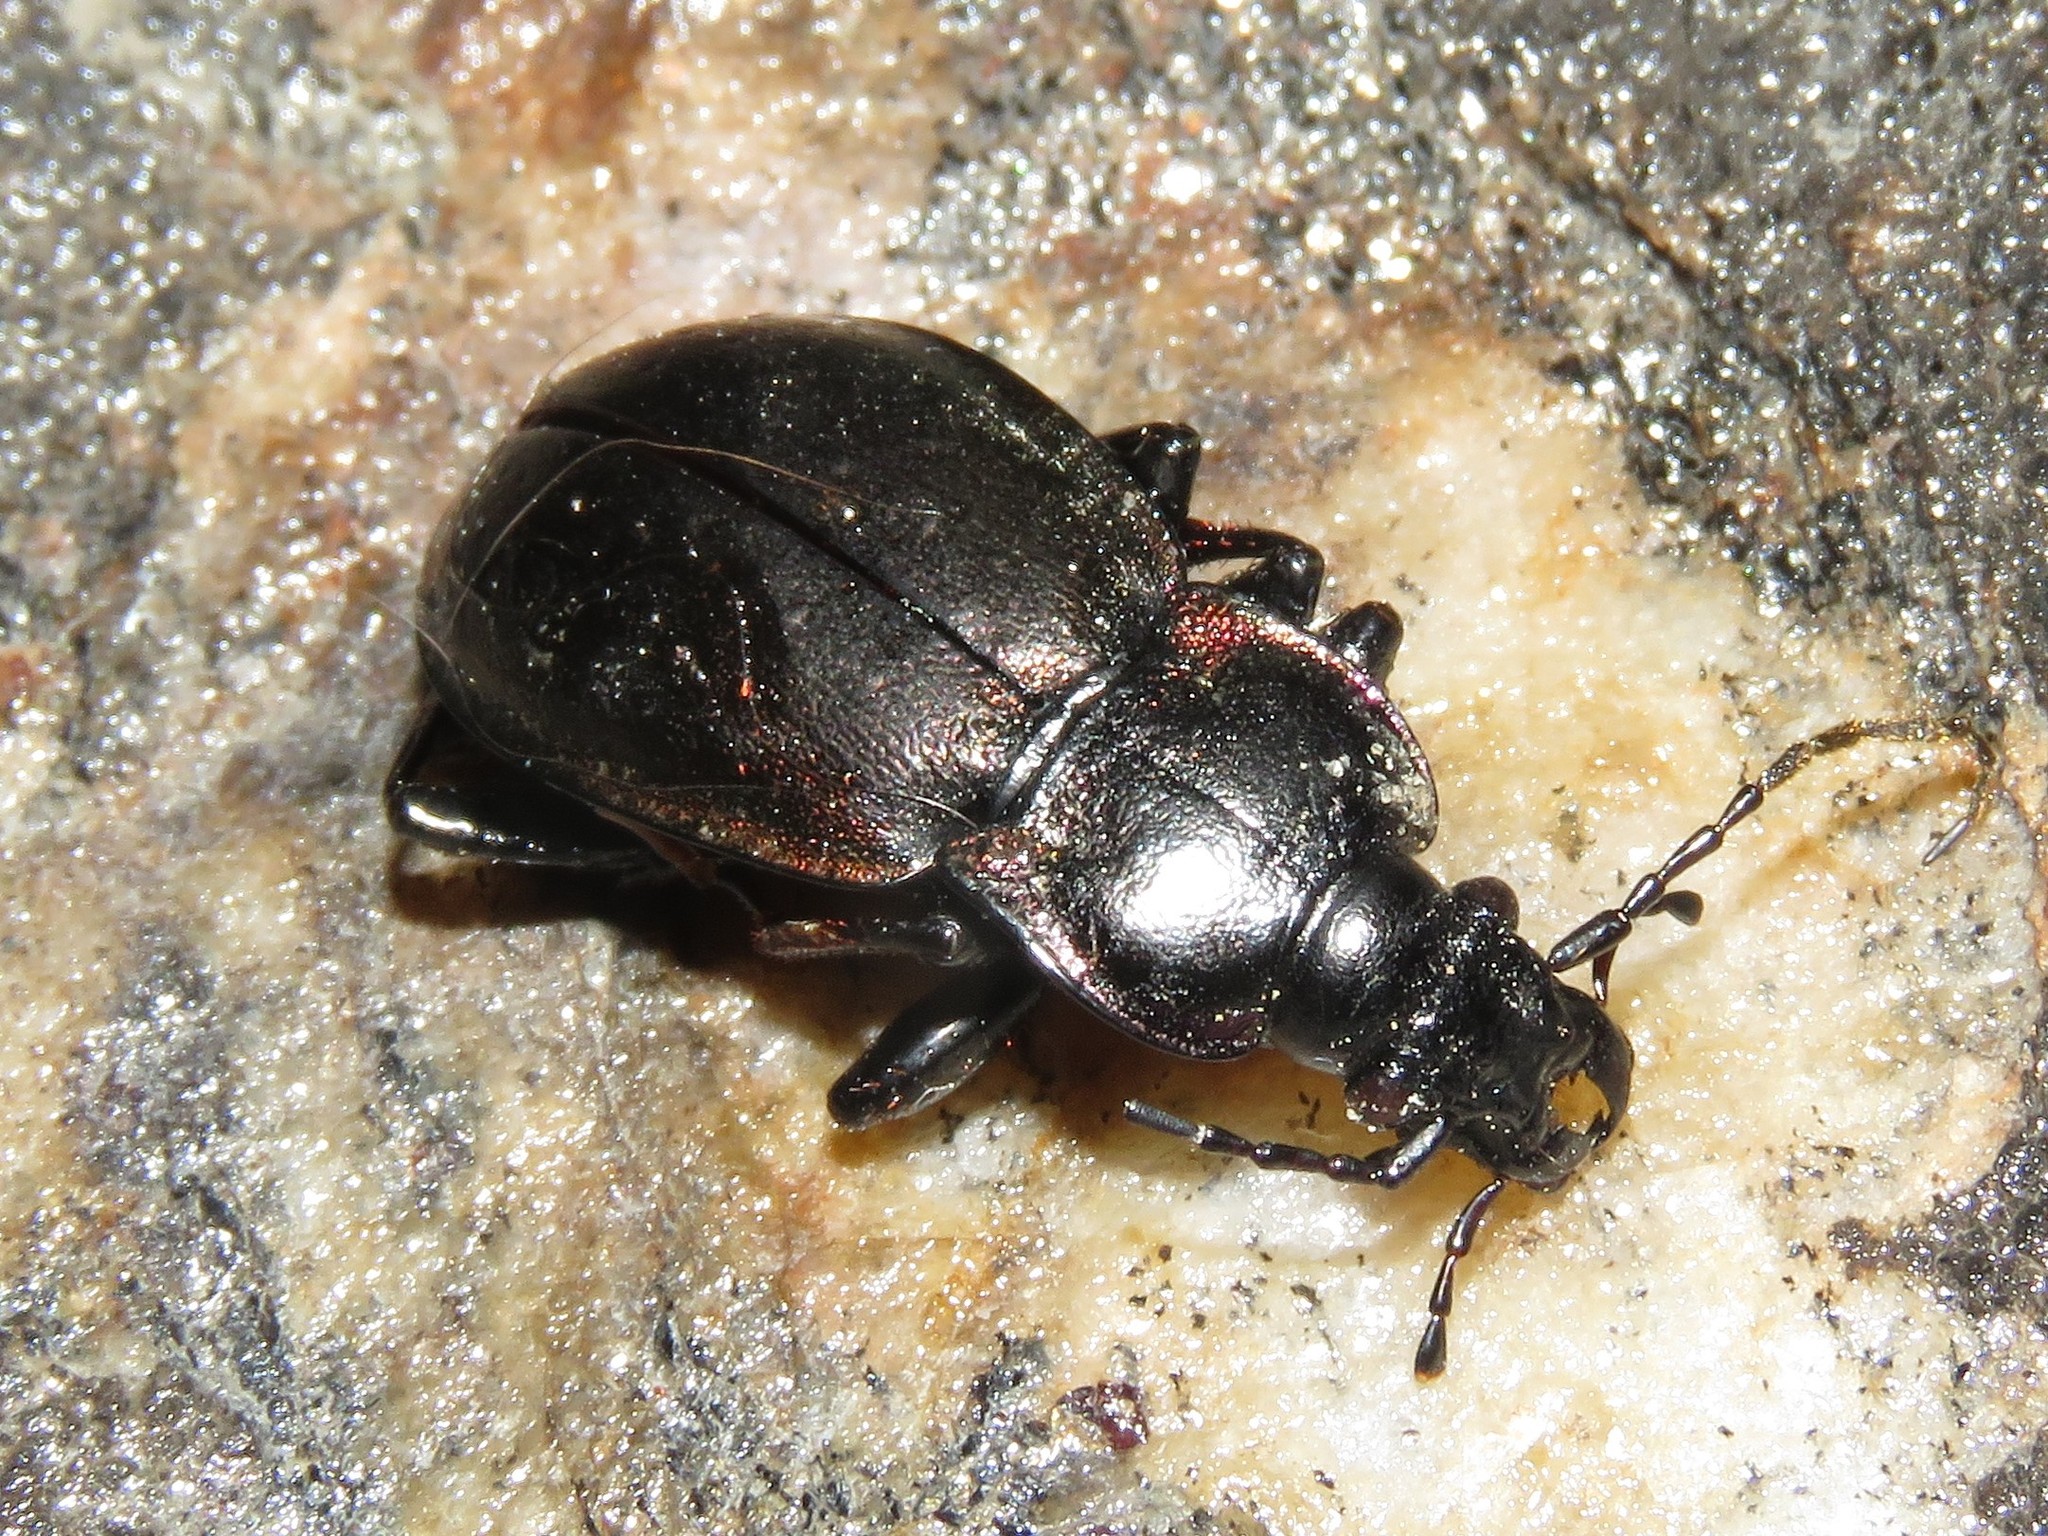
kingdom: Animalia
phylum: Arthropoda
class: Insecta
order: Coleoptera
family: Carabidae
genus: Carabus
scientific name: Carabus nemoralis
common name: European ground beetle
